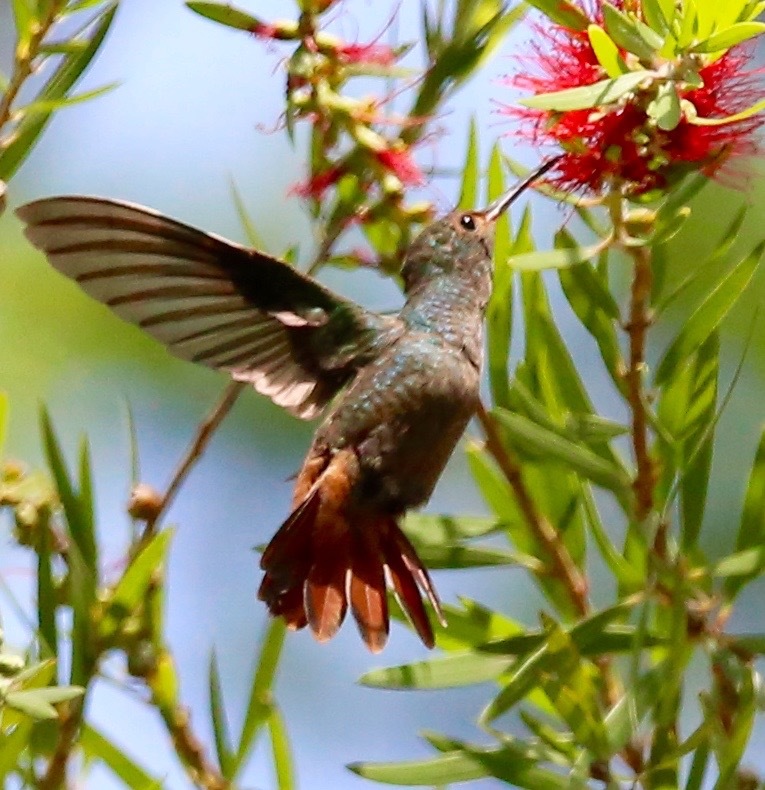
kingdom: Animalia
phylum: Chordata
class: Aves
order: Apodiformes
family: Trochilidae
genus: Amazilia
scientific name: Amazilia tzacatl
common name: Rufous-tailed hummingbird
